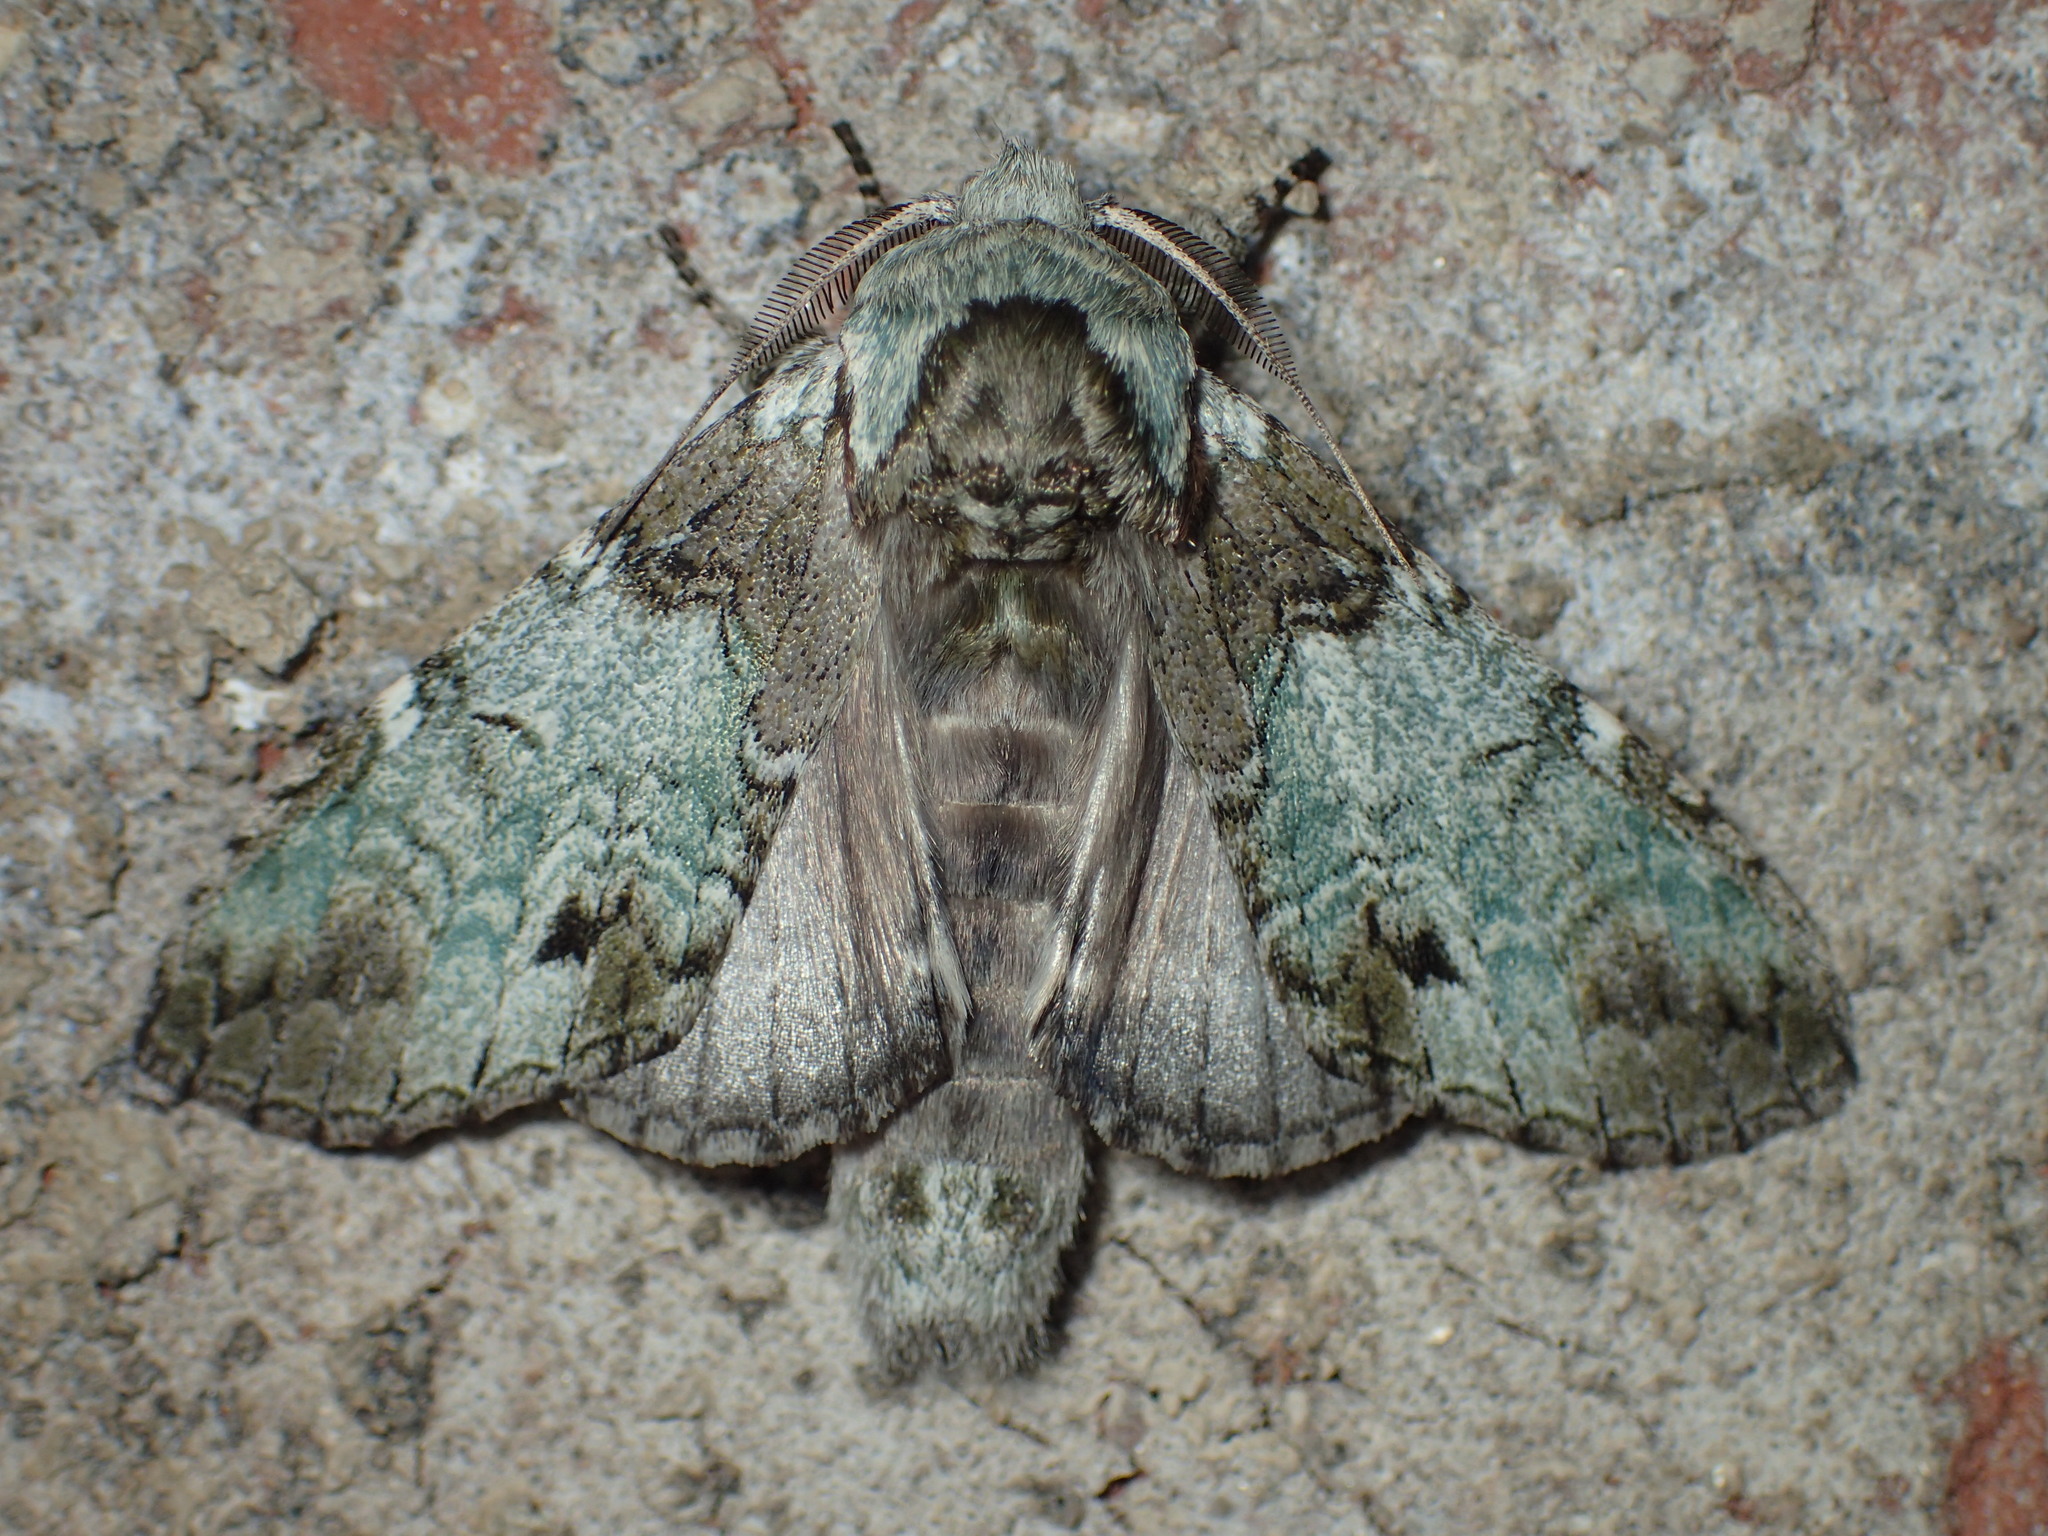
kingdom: Animalia
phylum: Arthropoda
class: Insecta
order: Lepidoptera
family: Notodontidae
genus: Macrurocampa
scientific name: Macrurocampa marthesia
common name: Mottled prominent
